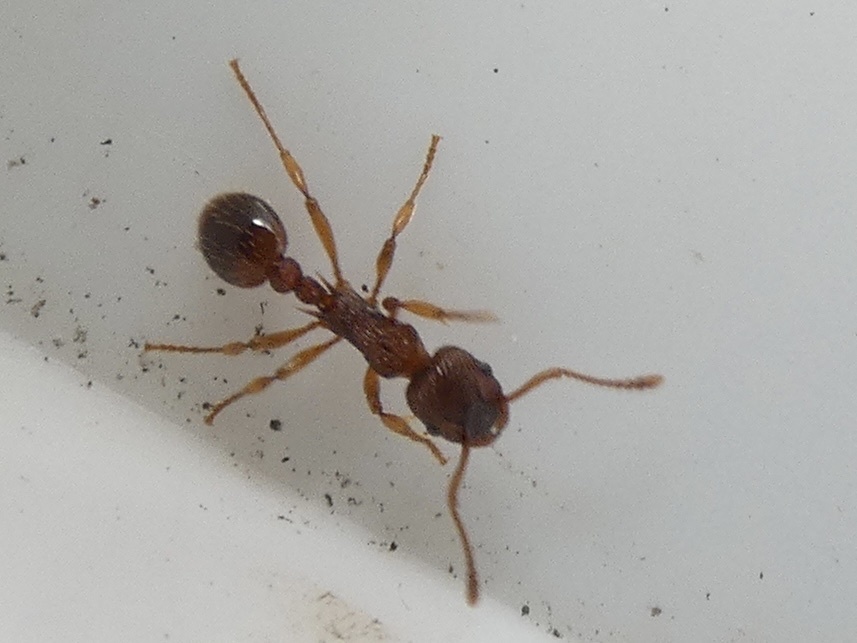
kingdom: Animalia
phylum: Arthropoda
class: Insecta
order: Hymenoptera
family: Formicidae
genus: Myrmica
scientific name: Myrmica ruginodis
